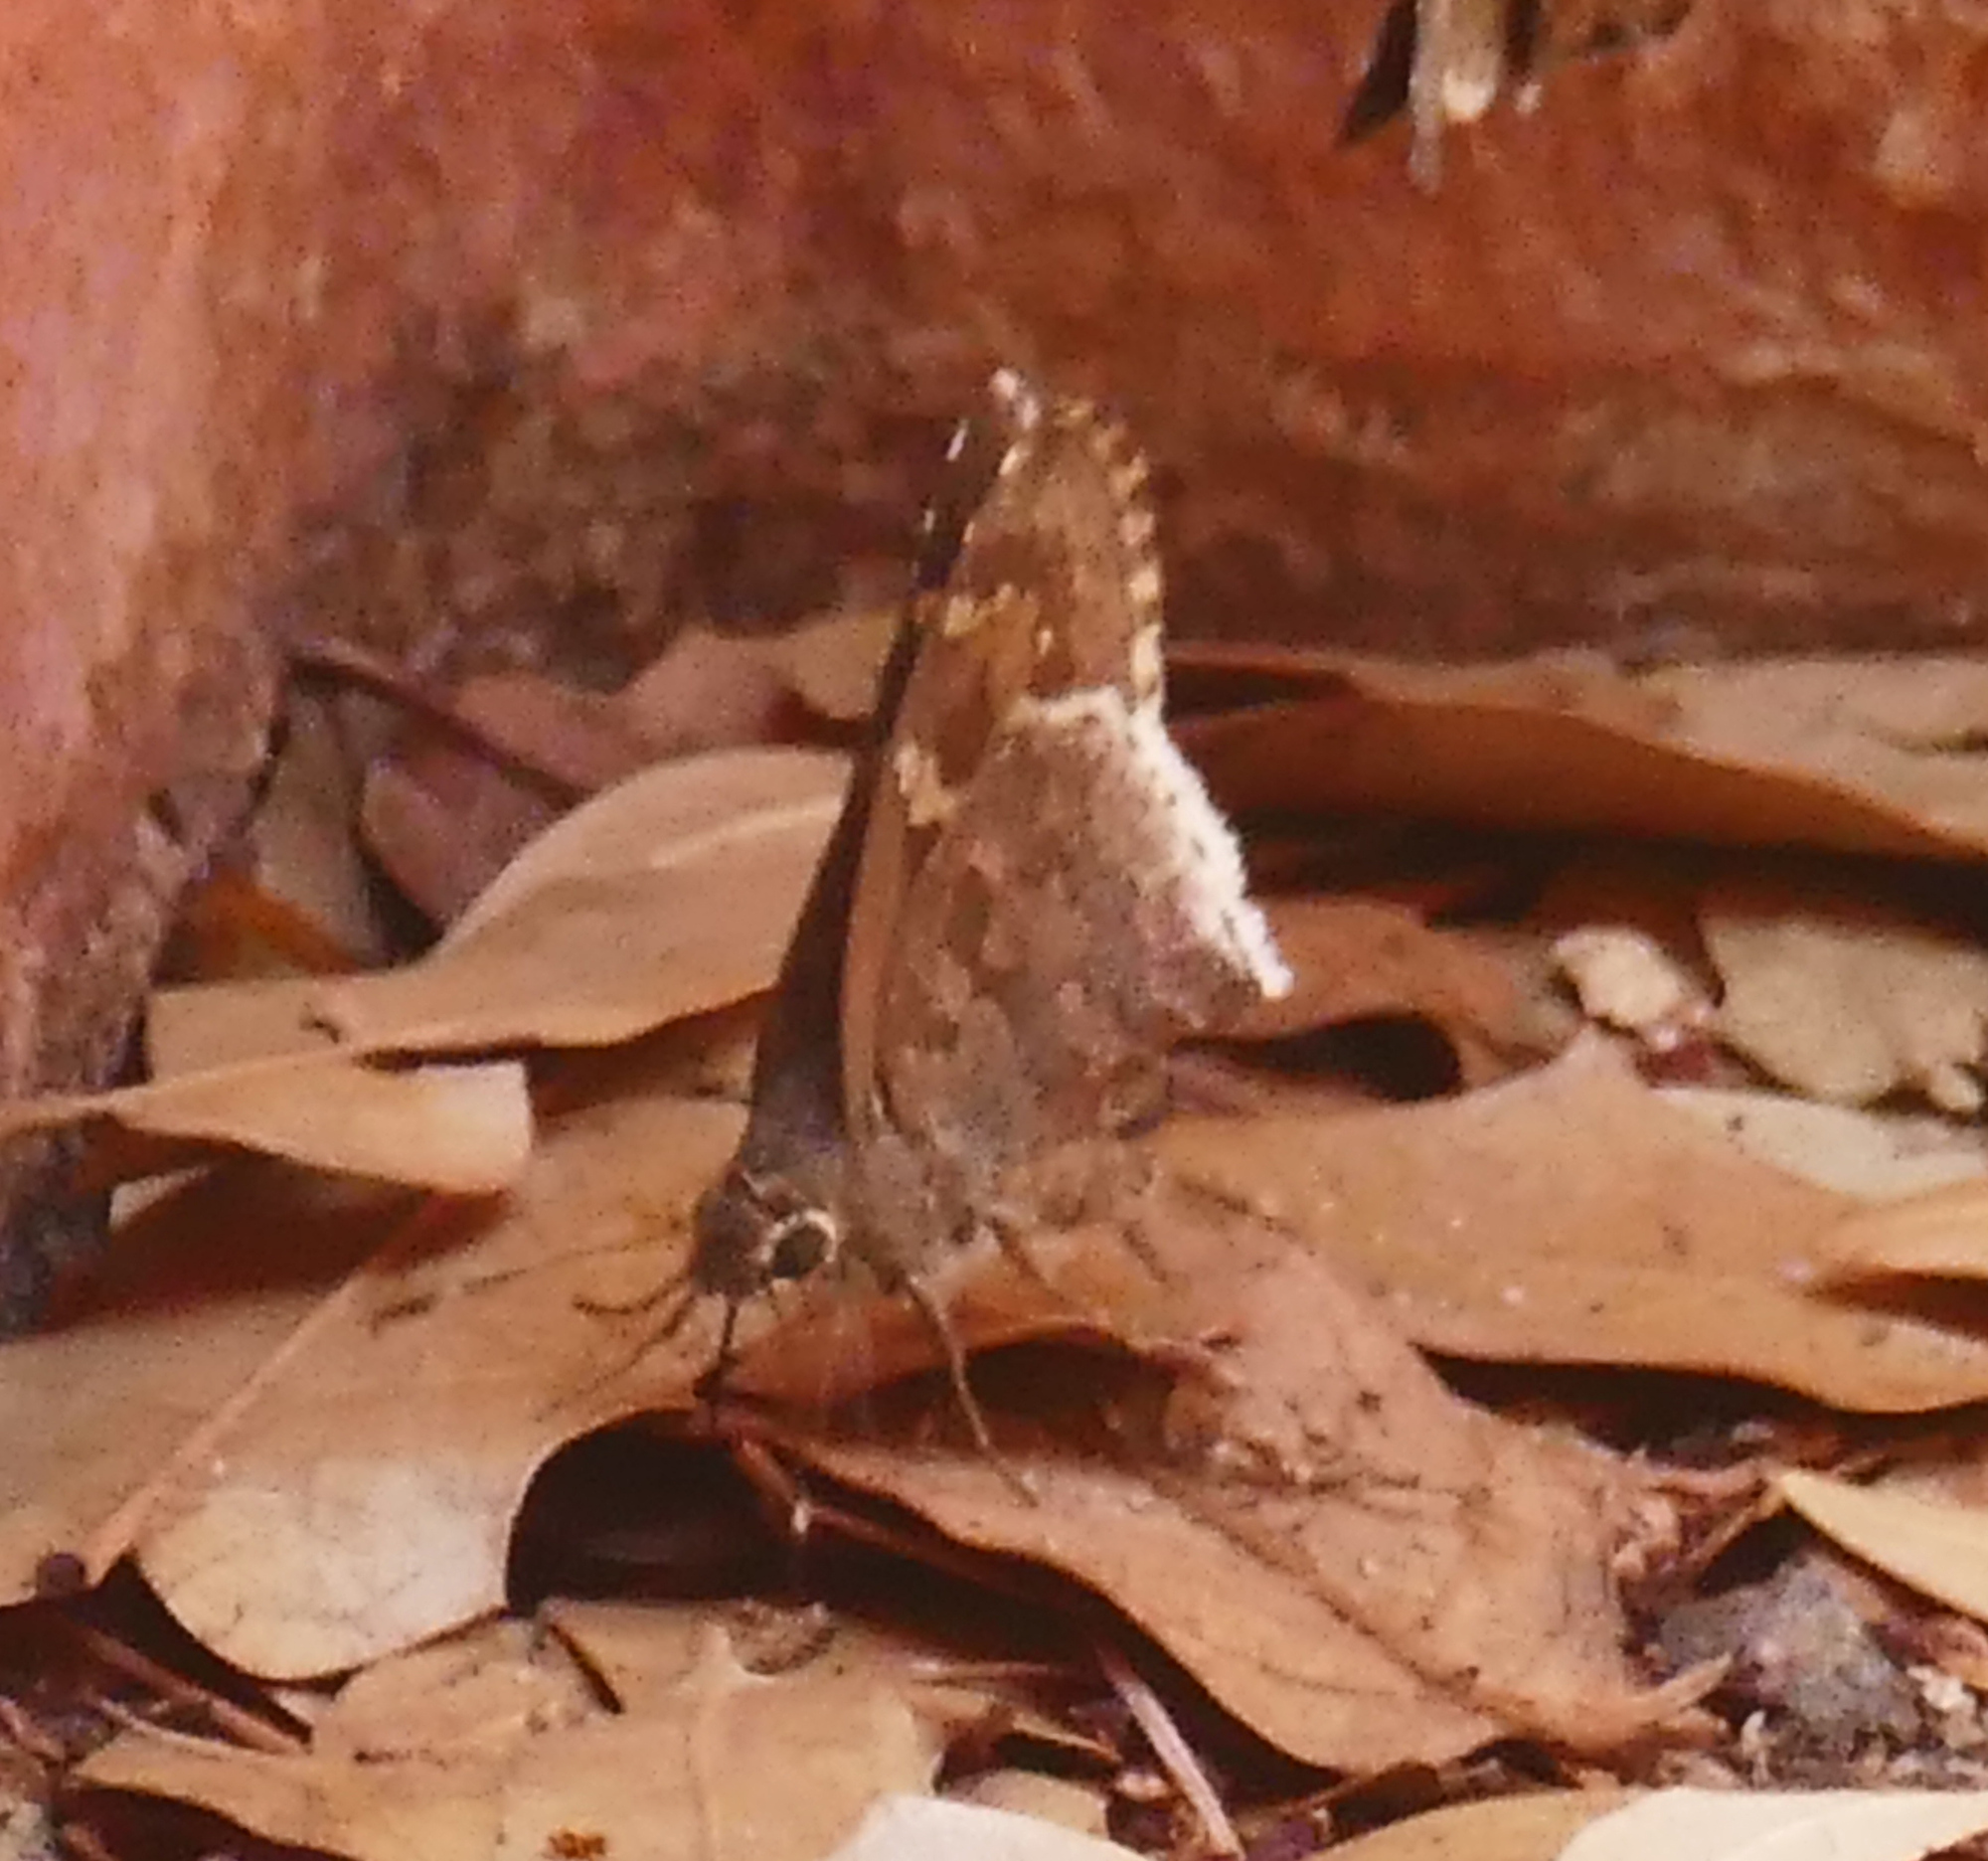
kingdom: Animalia
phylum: Arthropoda
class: Insecta
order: Lepidoptera
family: Hesperiidae
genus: Cogia
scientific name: Cogia hippalus
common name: Acacia skipper
